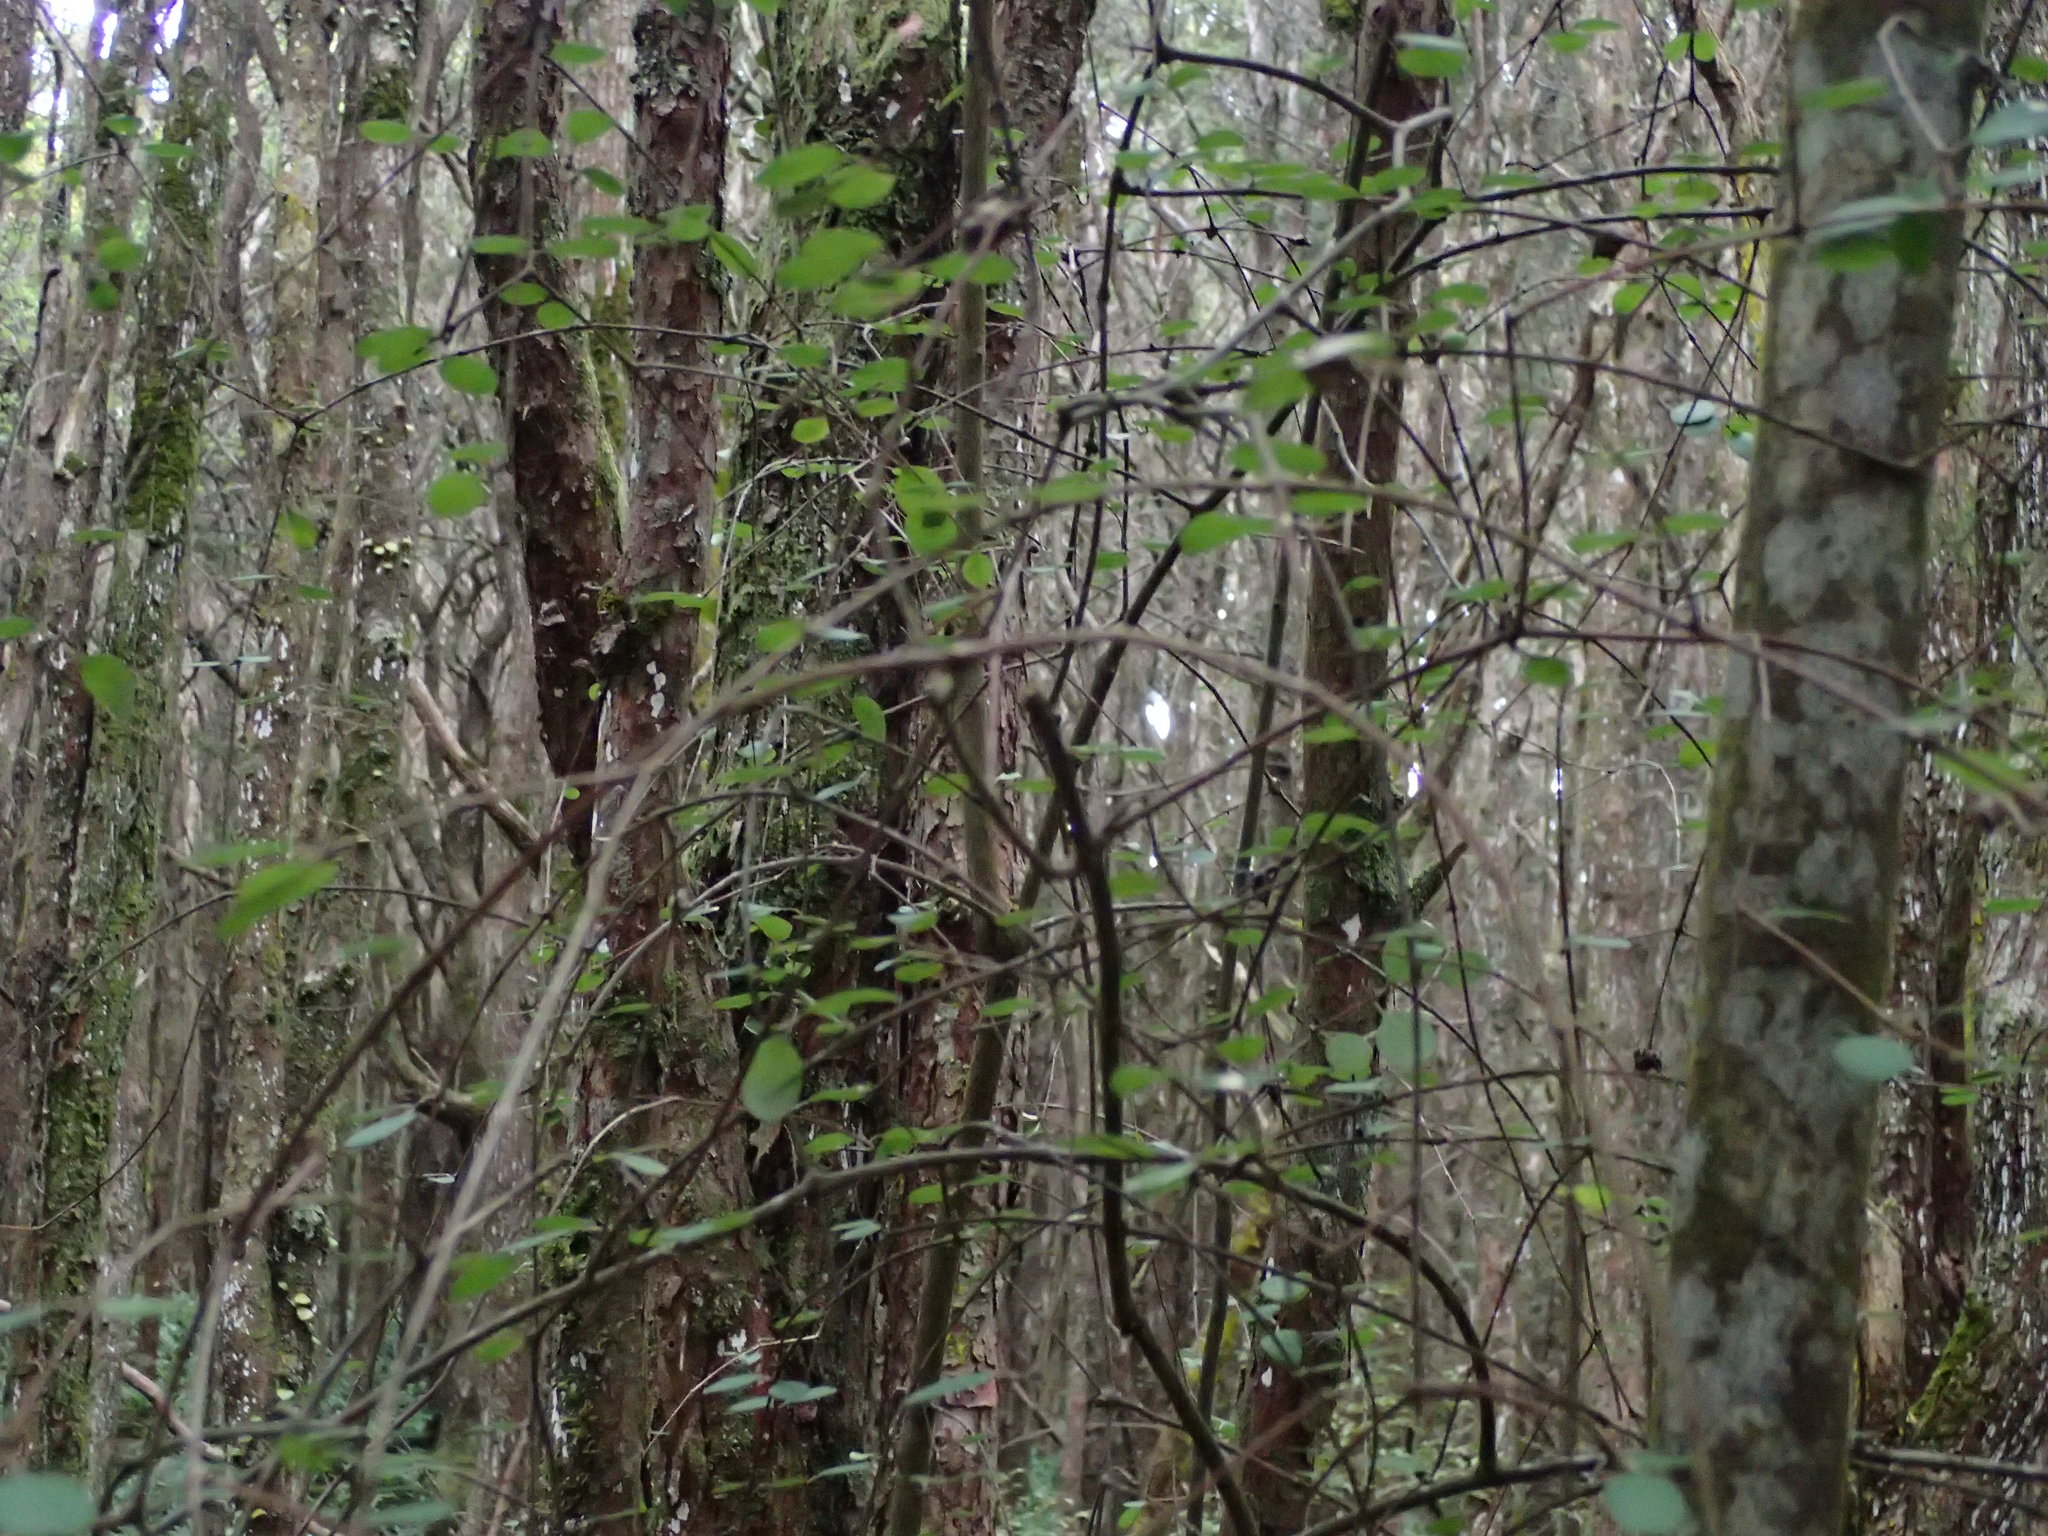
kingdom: Plantae
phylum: Tracheophyta
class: Magnoliopsida
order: Gentianales
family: Rubiaceae
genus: Coprosma
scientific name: Coprosma rubra
